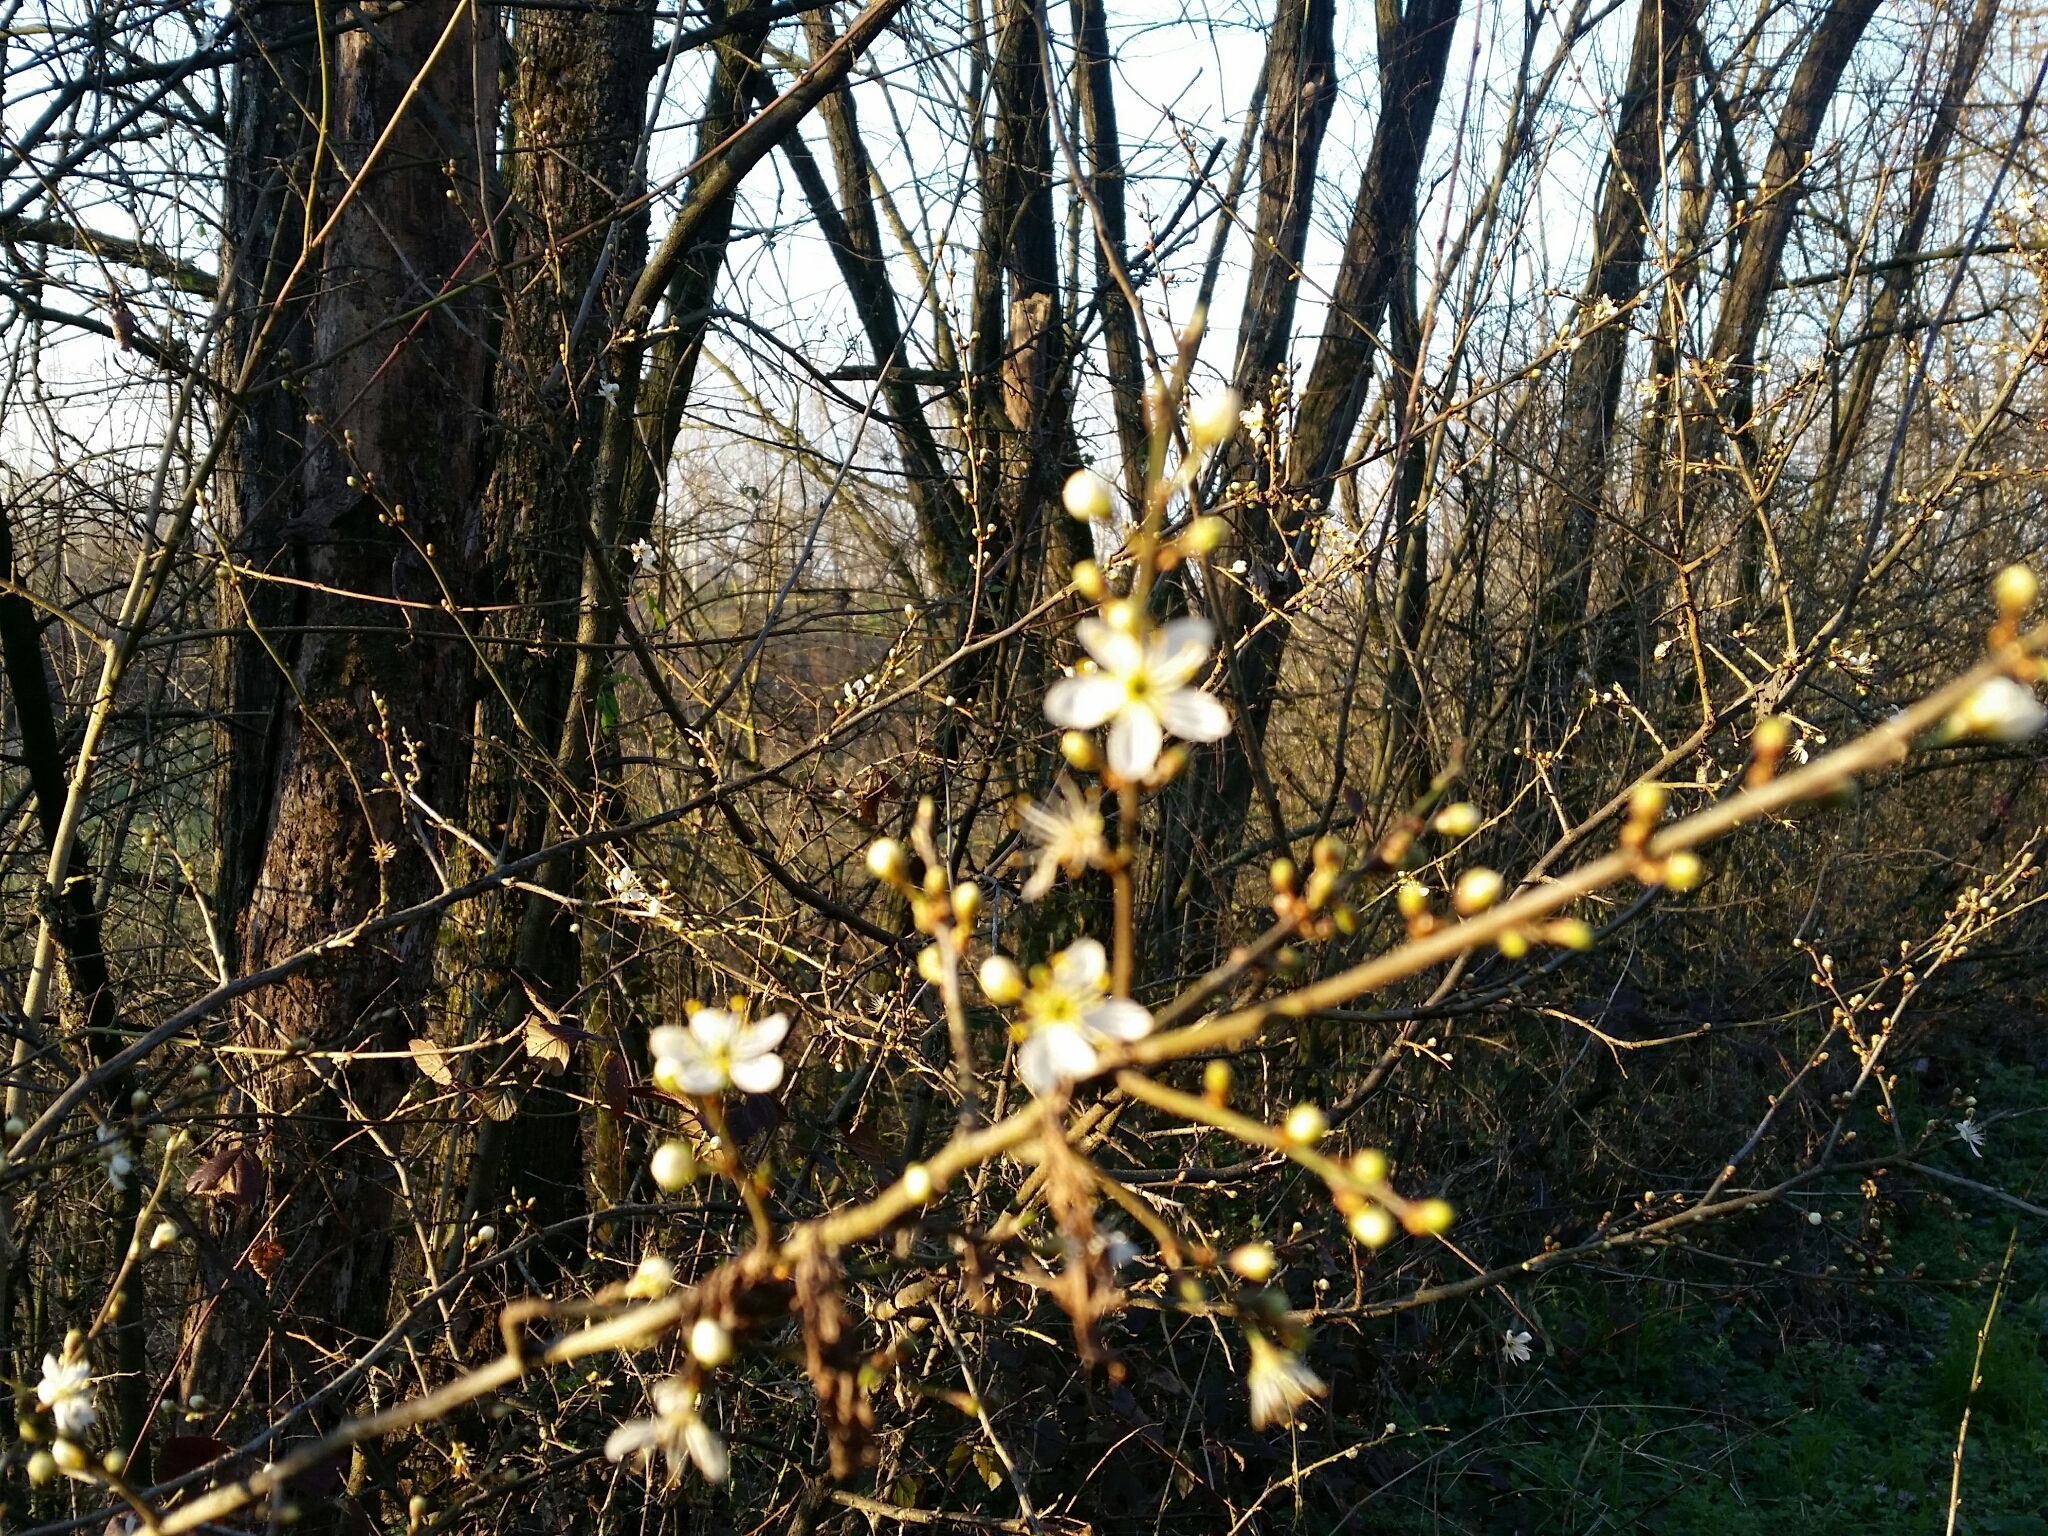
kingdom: Plantae
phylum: Tracheophyta
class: Magnoliopsida
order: Rosales
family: Rosaceae
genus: Prunus
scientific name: Prunus spinosa
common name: Blackthorn
